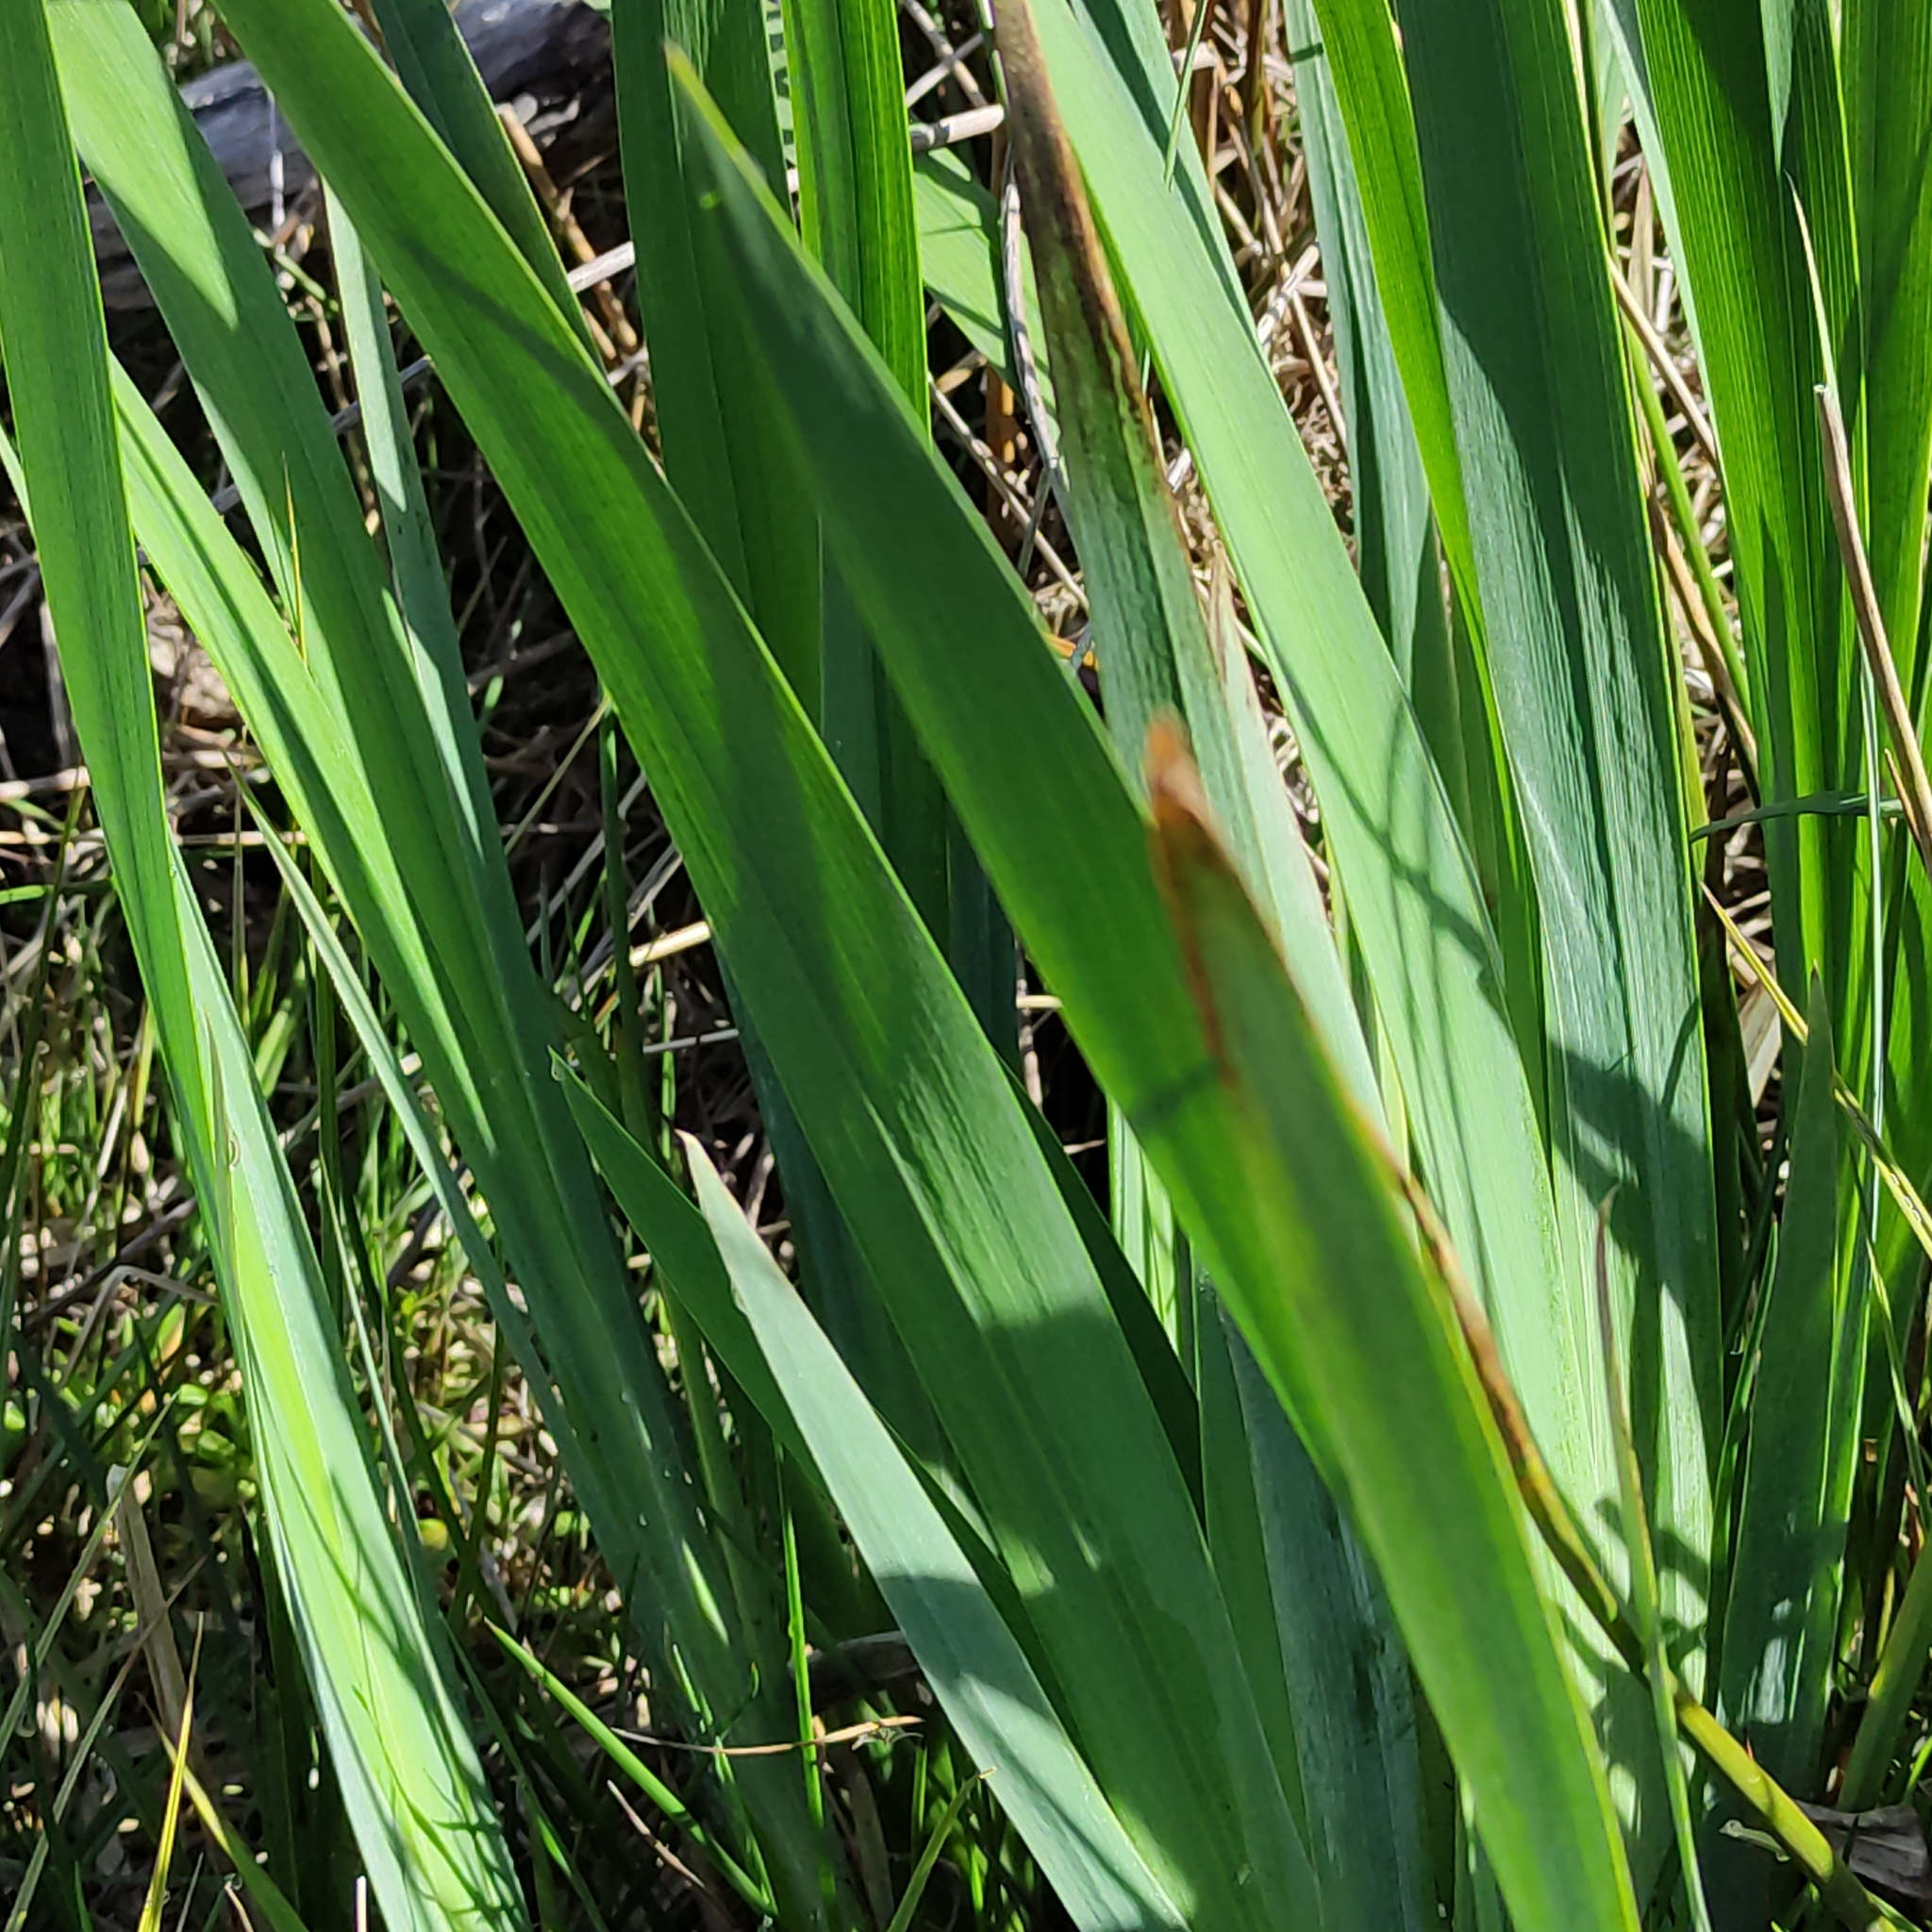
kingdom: Plantae
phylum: Tracheophyta
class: Liliopsida
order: Asparagales
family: Iridaceae
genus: Iris
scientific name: Iris pseudacorus
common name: Yellow flag
